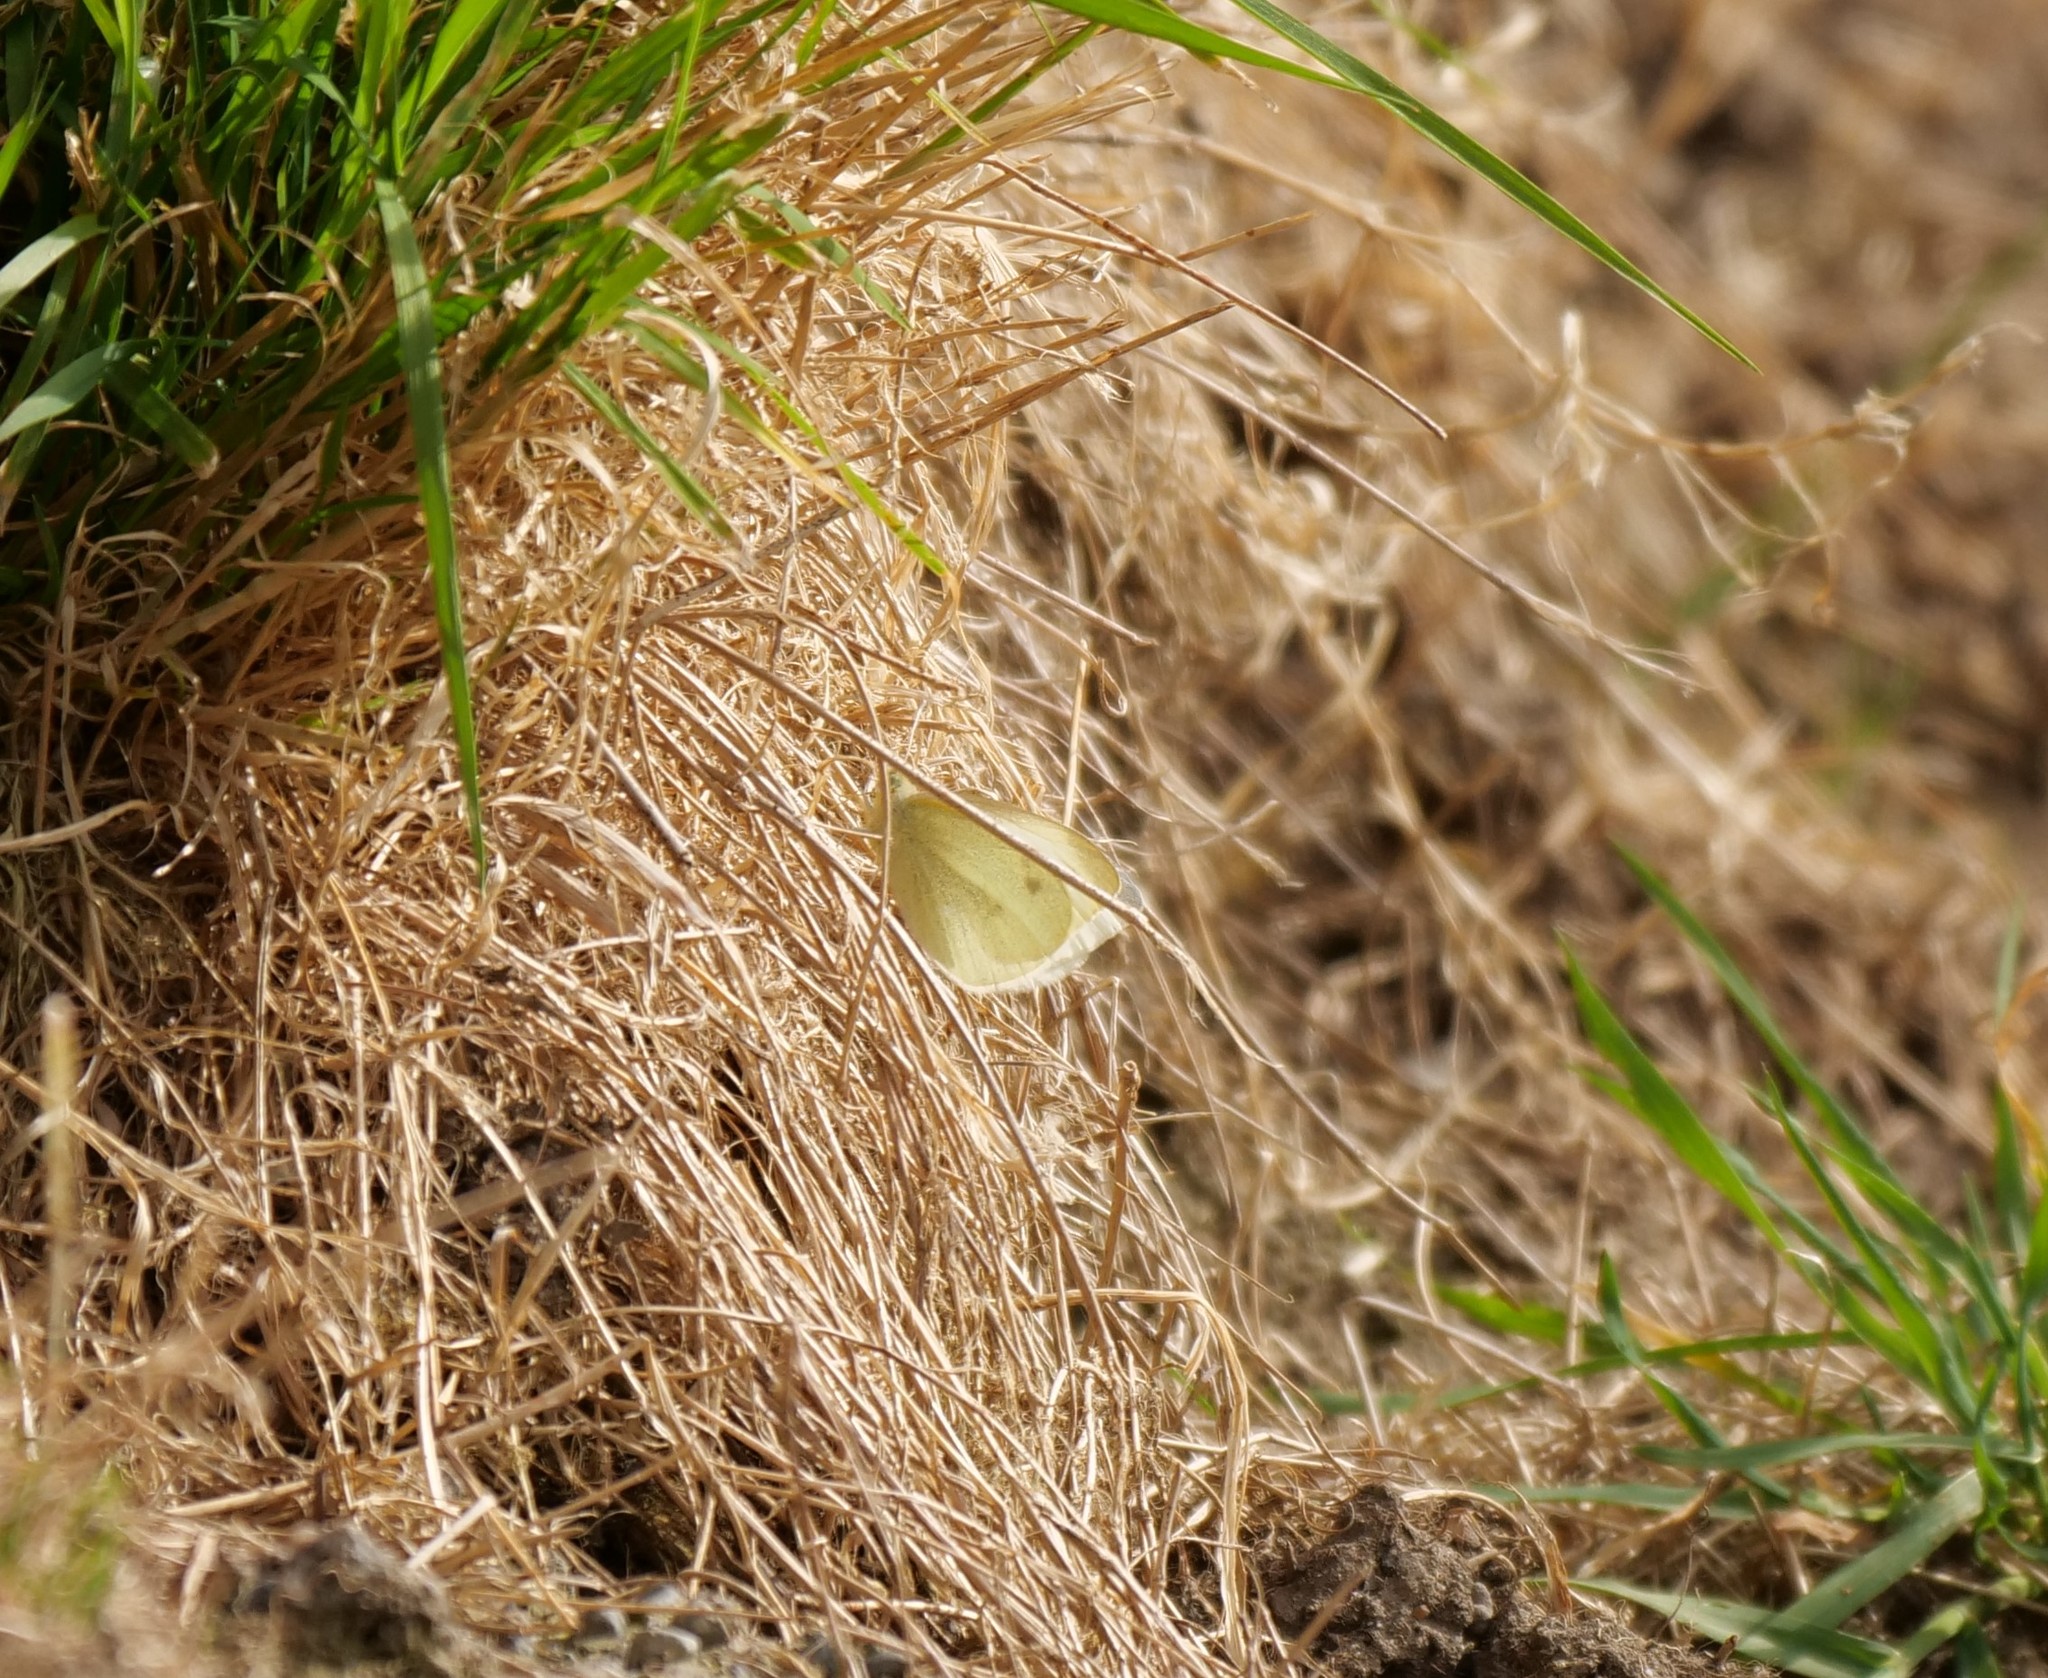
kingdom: Animalia
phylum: Arthropoda
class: Insecta
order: Lepidoptera
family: Pieridae
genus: Pieris
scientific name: Pieris rapae
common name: Small white
